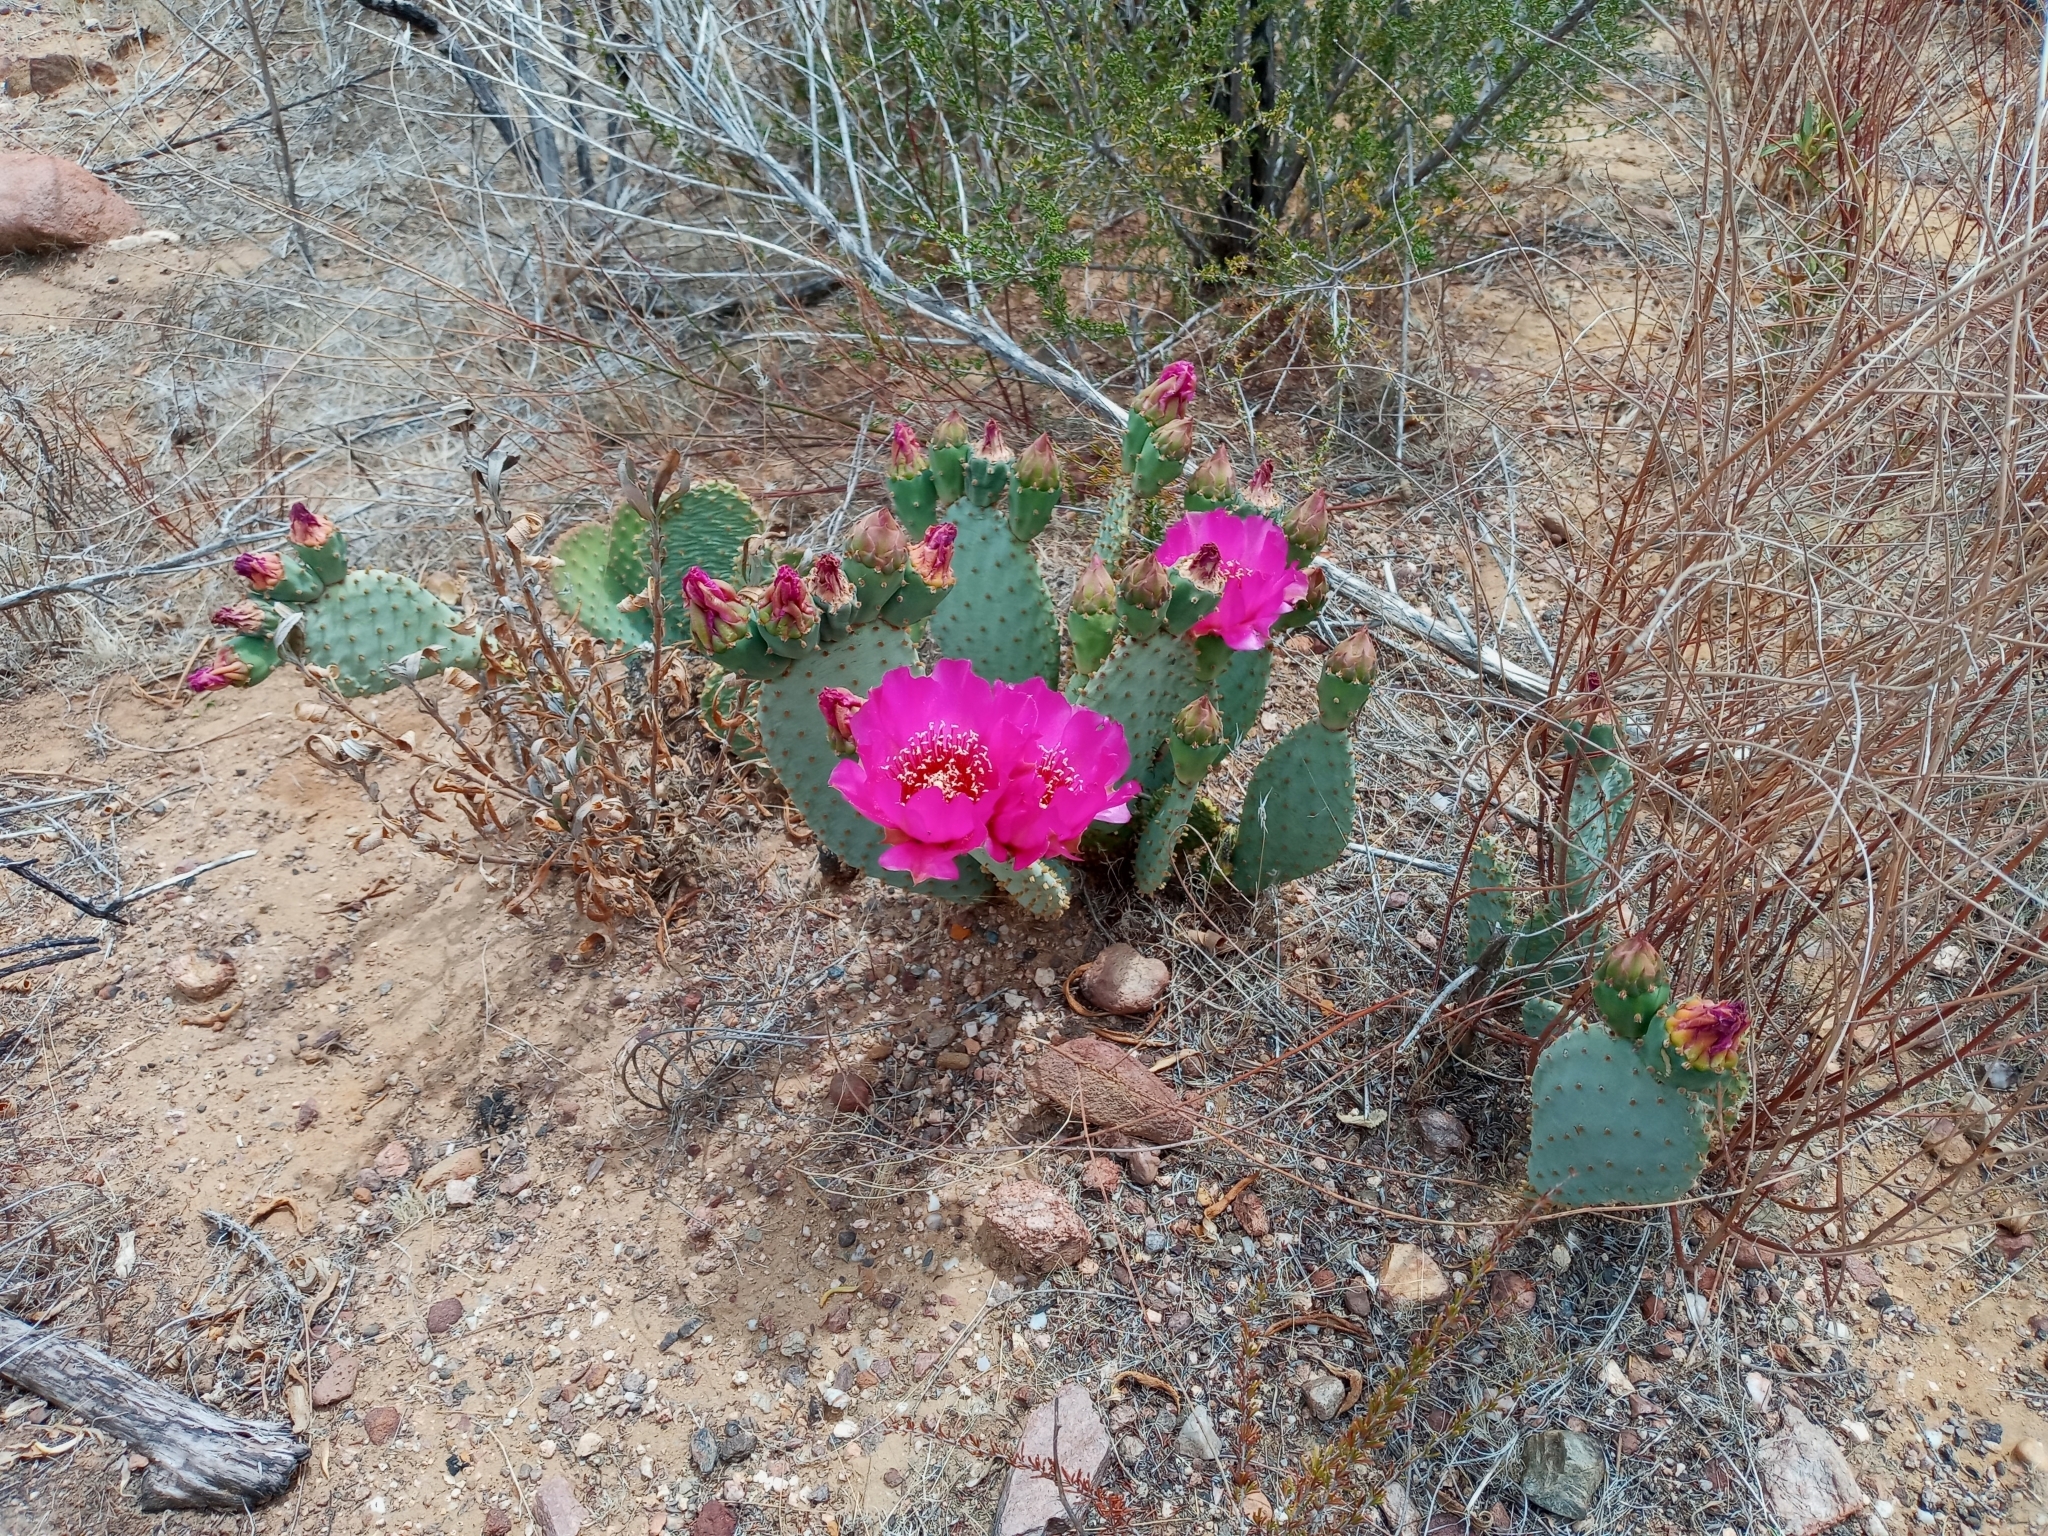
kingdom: Plantae
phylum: Tracheophyta
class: Magnoliopsida
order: Caryophyllales
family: Cactaceae
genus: Opuntia
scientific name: Opuntia basilaris
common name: Beavertail prickly-pear
